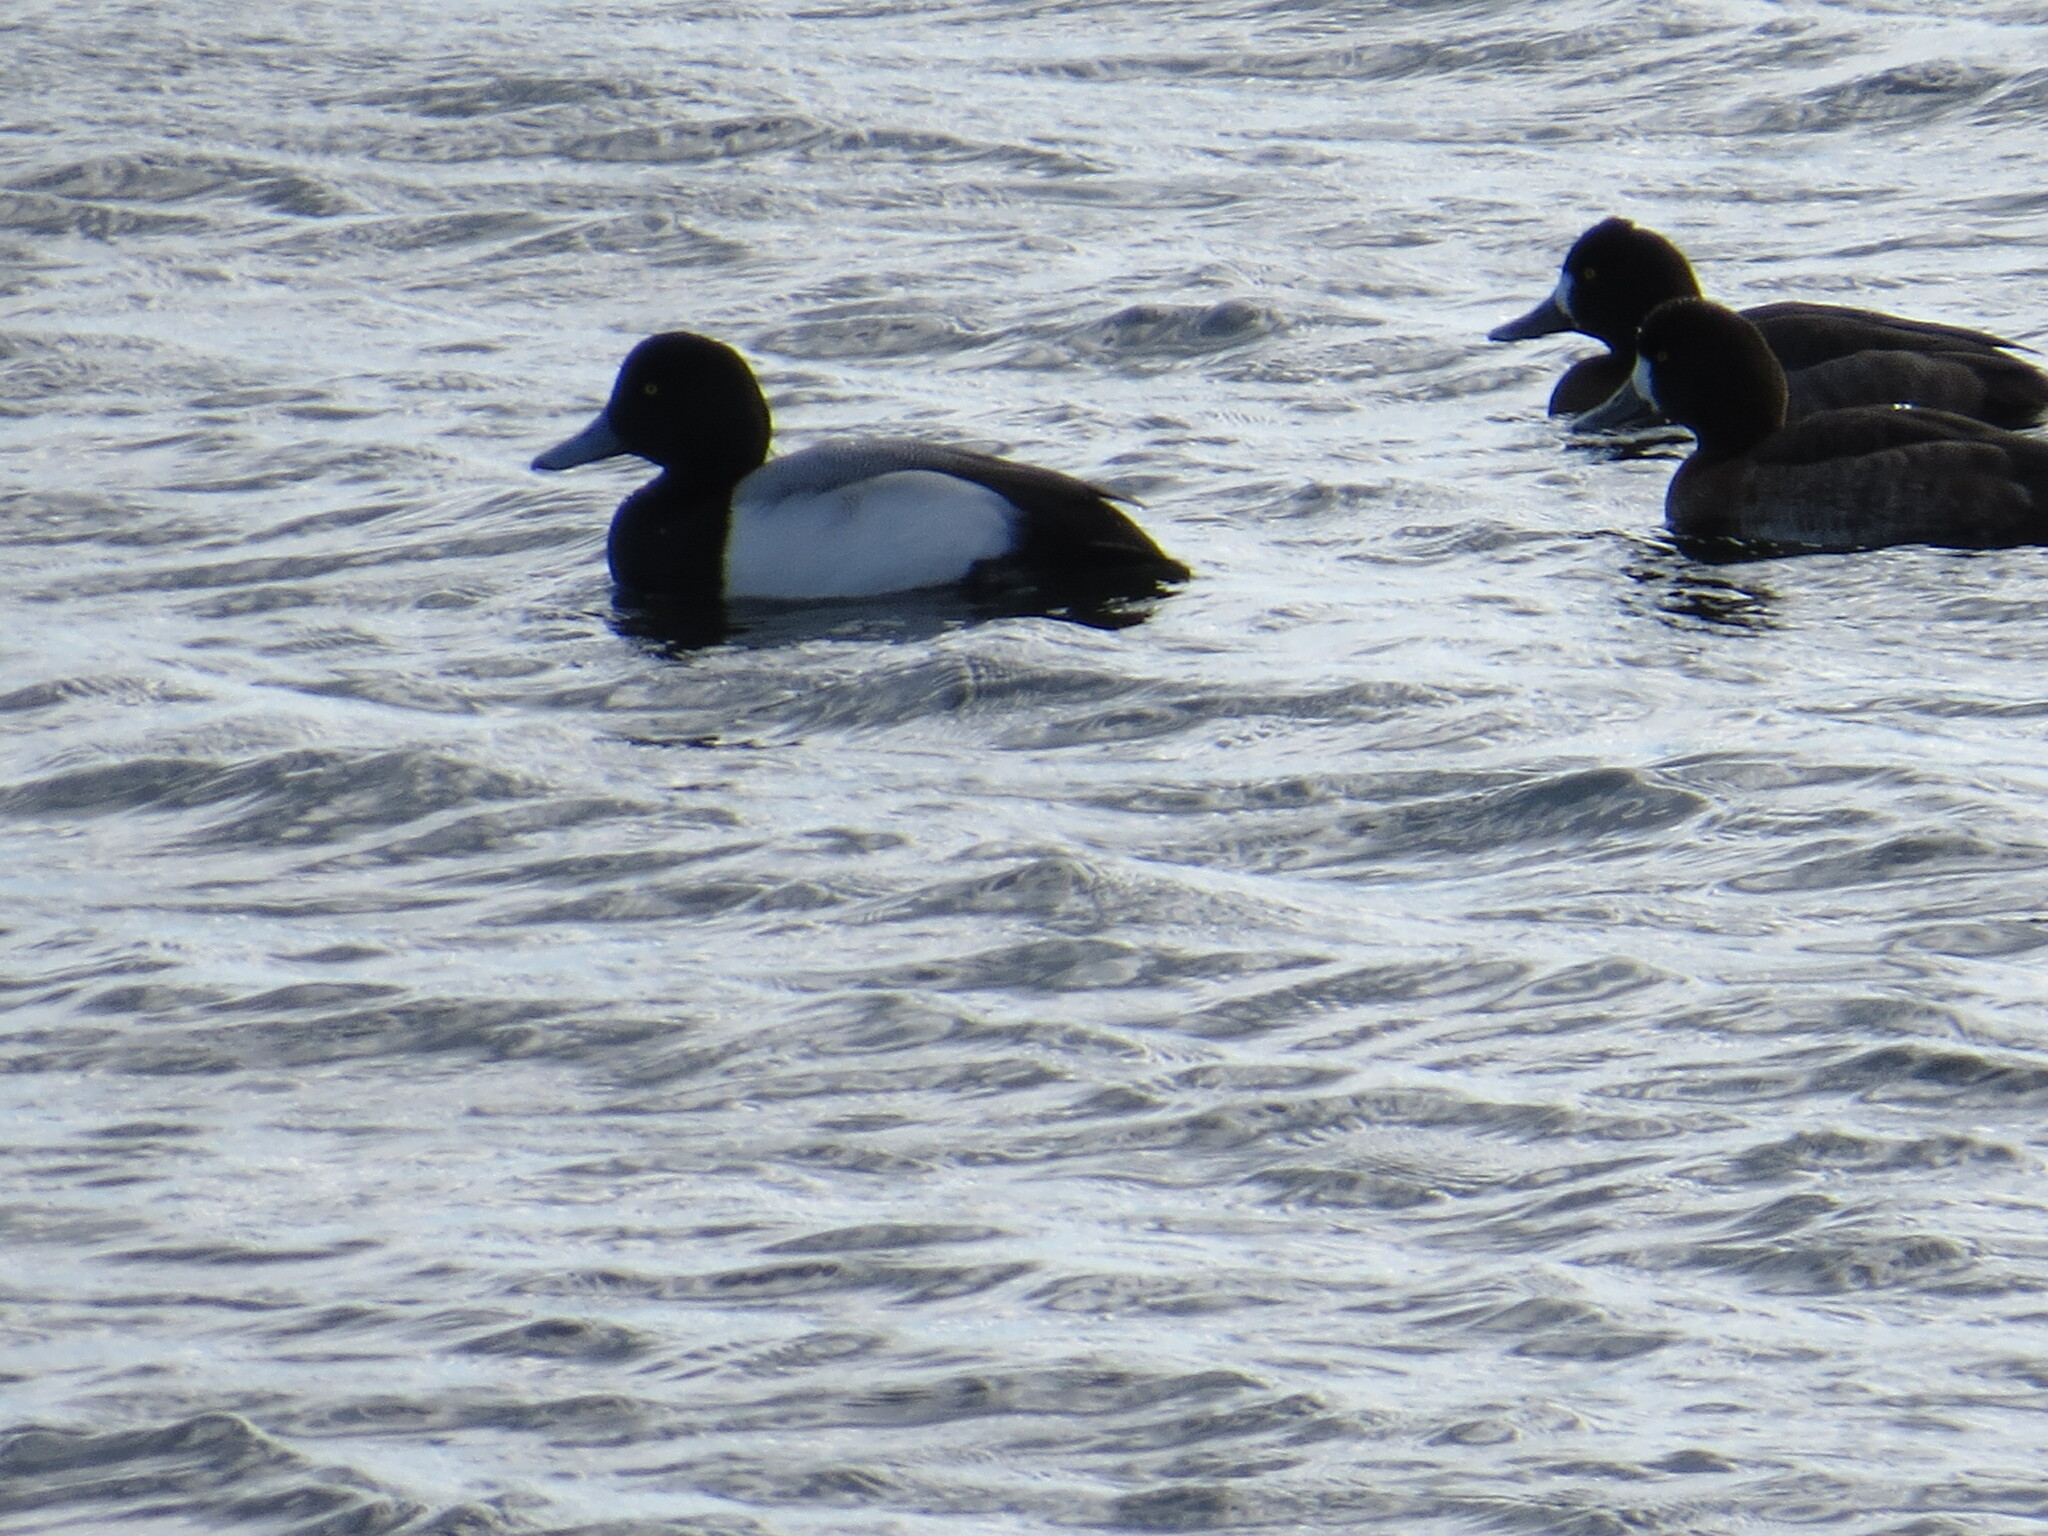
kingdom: Animalia
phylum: Chordata
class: Aves
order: Anseriformes
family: Anatidae
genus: Aythya
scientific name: Aythya marila
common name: Greater scaup
